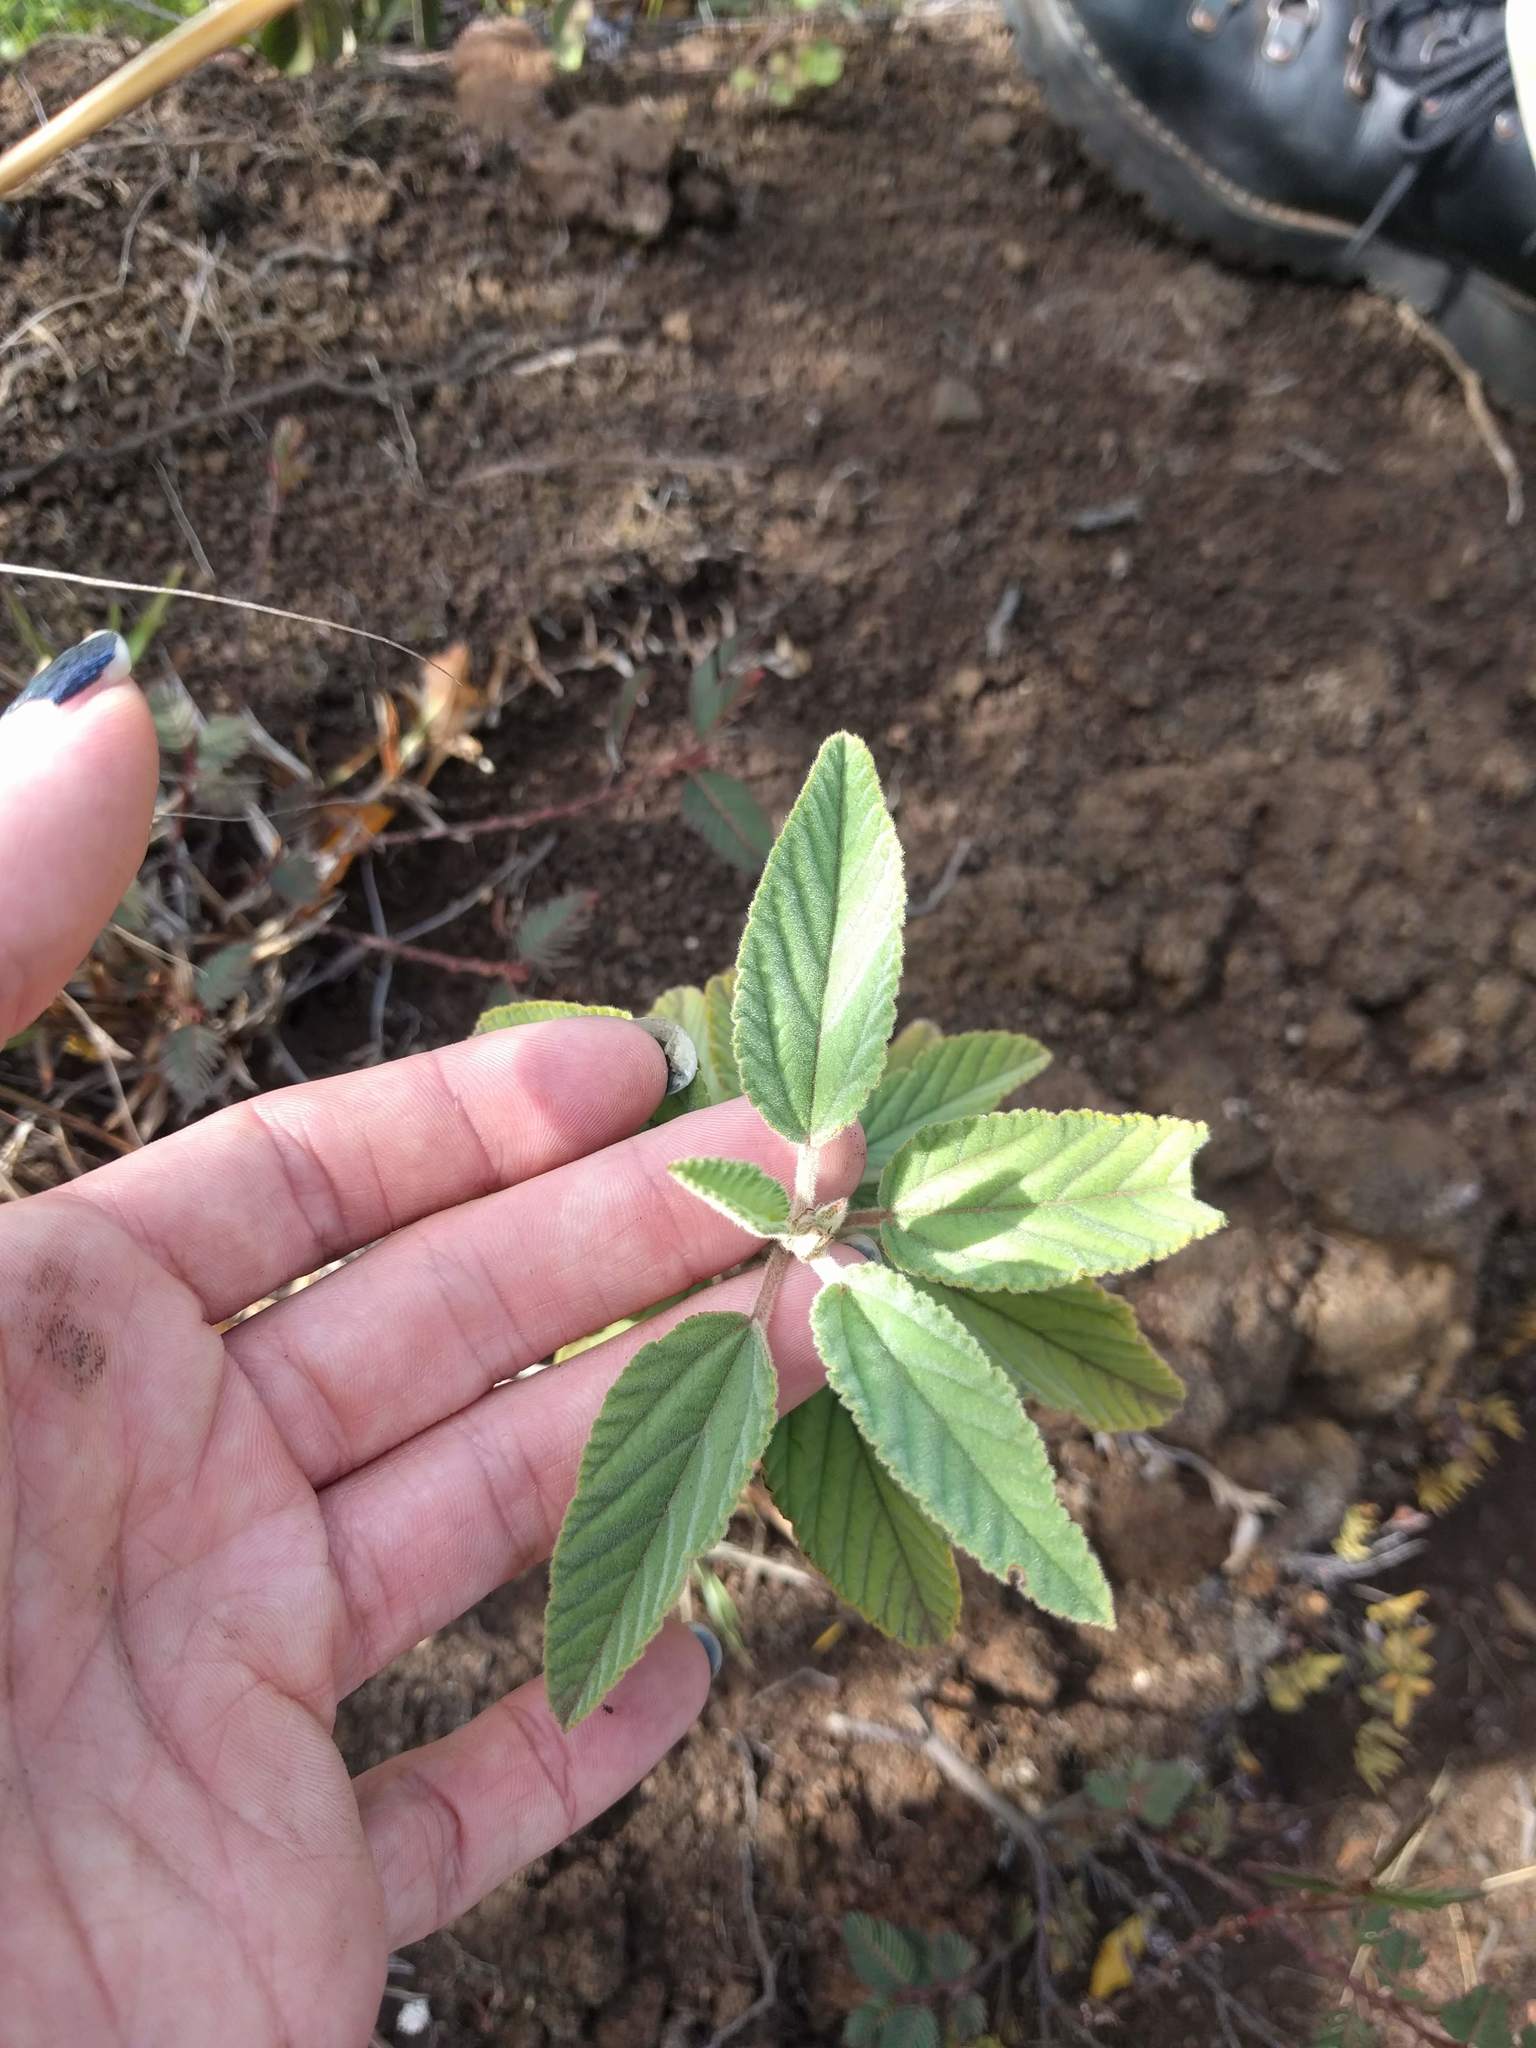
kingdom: Plantae
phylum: Tracheophyta
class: Magnoliopsida
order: Malvales
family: Malvaceae
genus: Waltheria
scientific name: Waltheria indica
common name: Leather-coat
